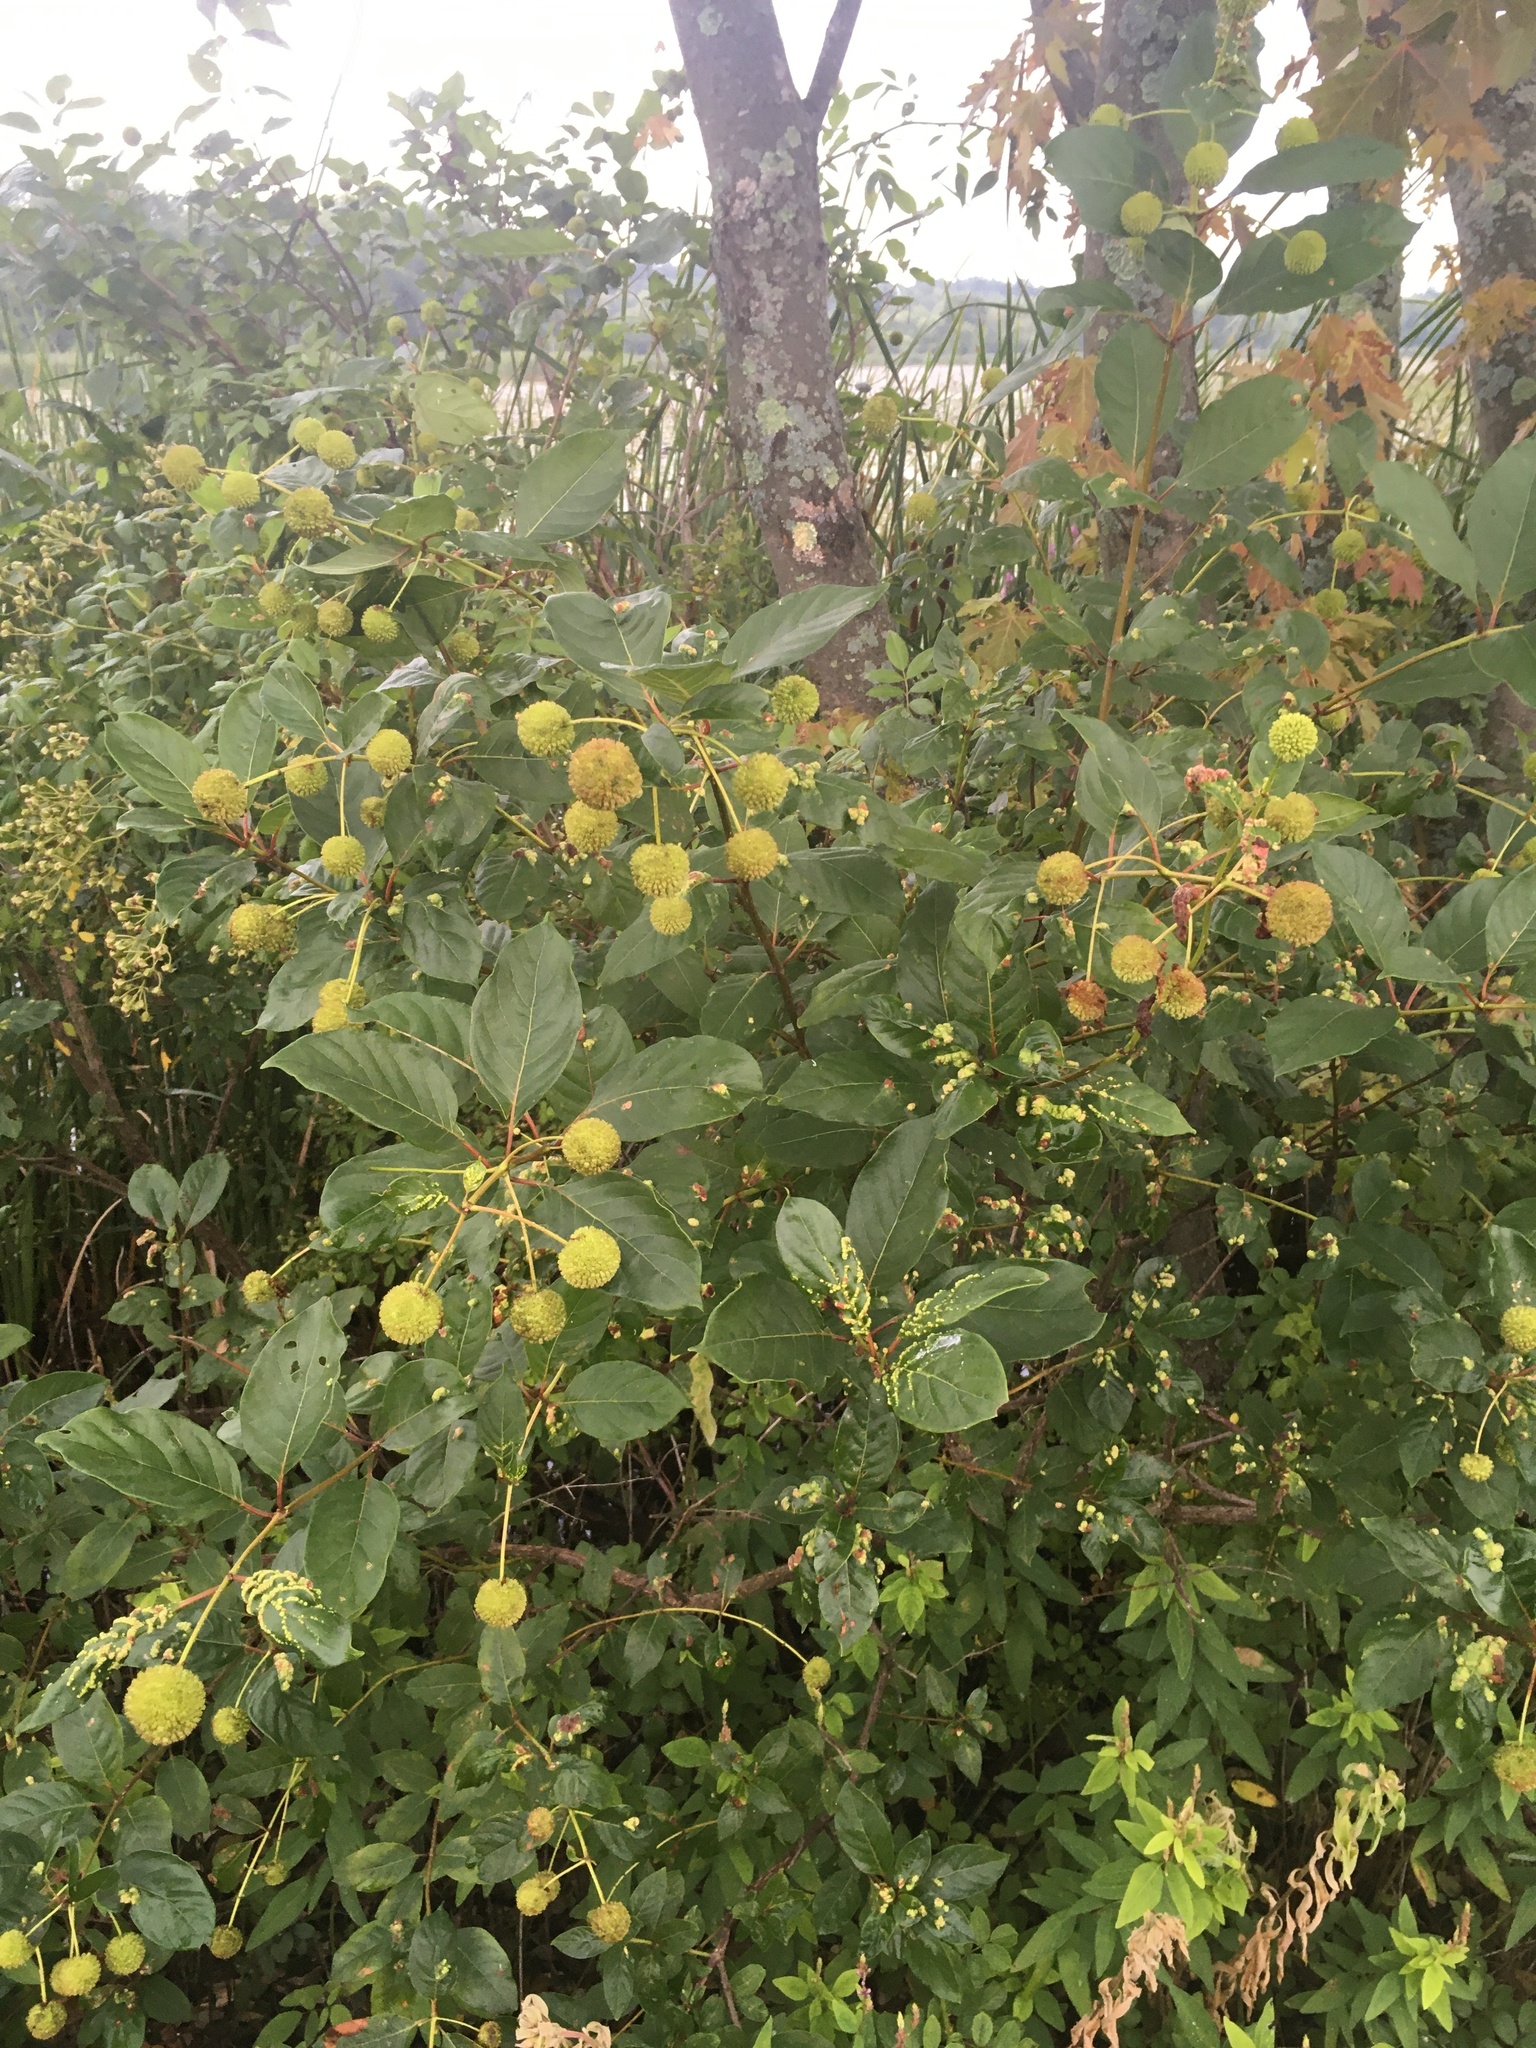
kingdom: Plantae
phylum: Tracheophyta
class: Magnoliopsida
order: Gentianales
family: Rubiaceae
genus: Cephalanthus
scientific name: Cephalanthus occidentalis
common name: Button-willow
